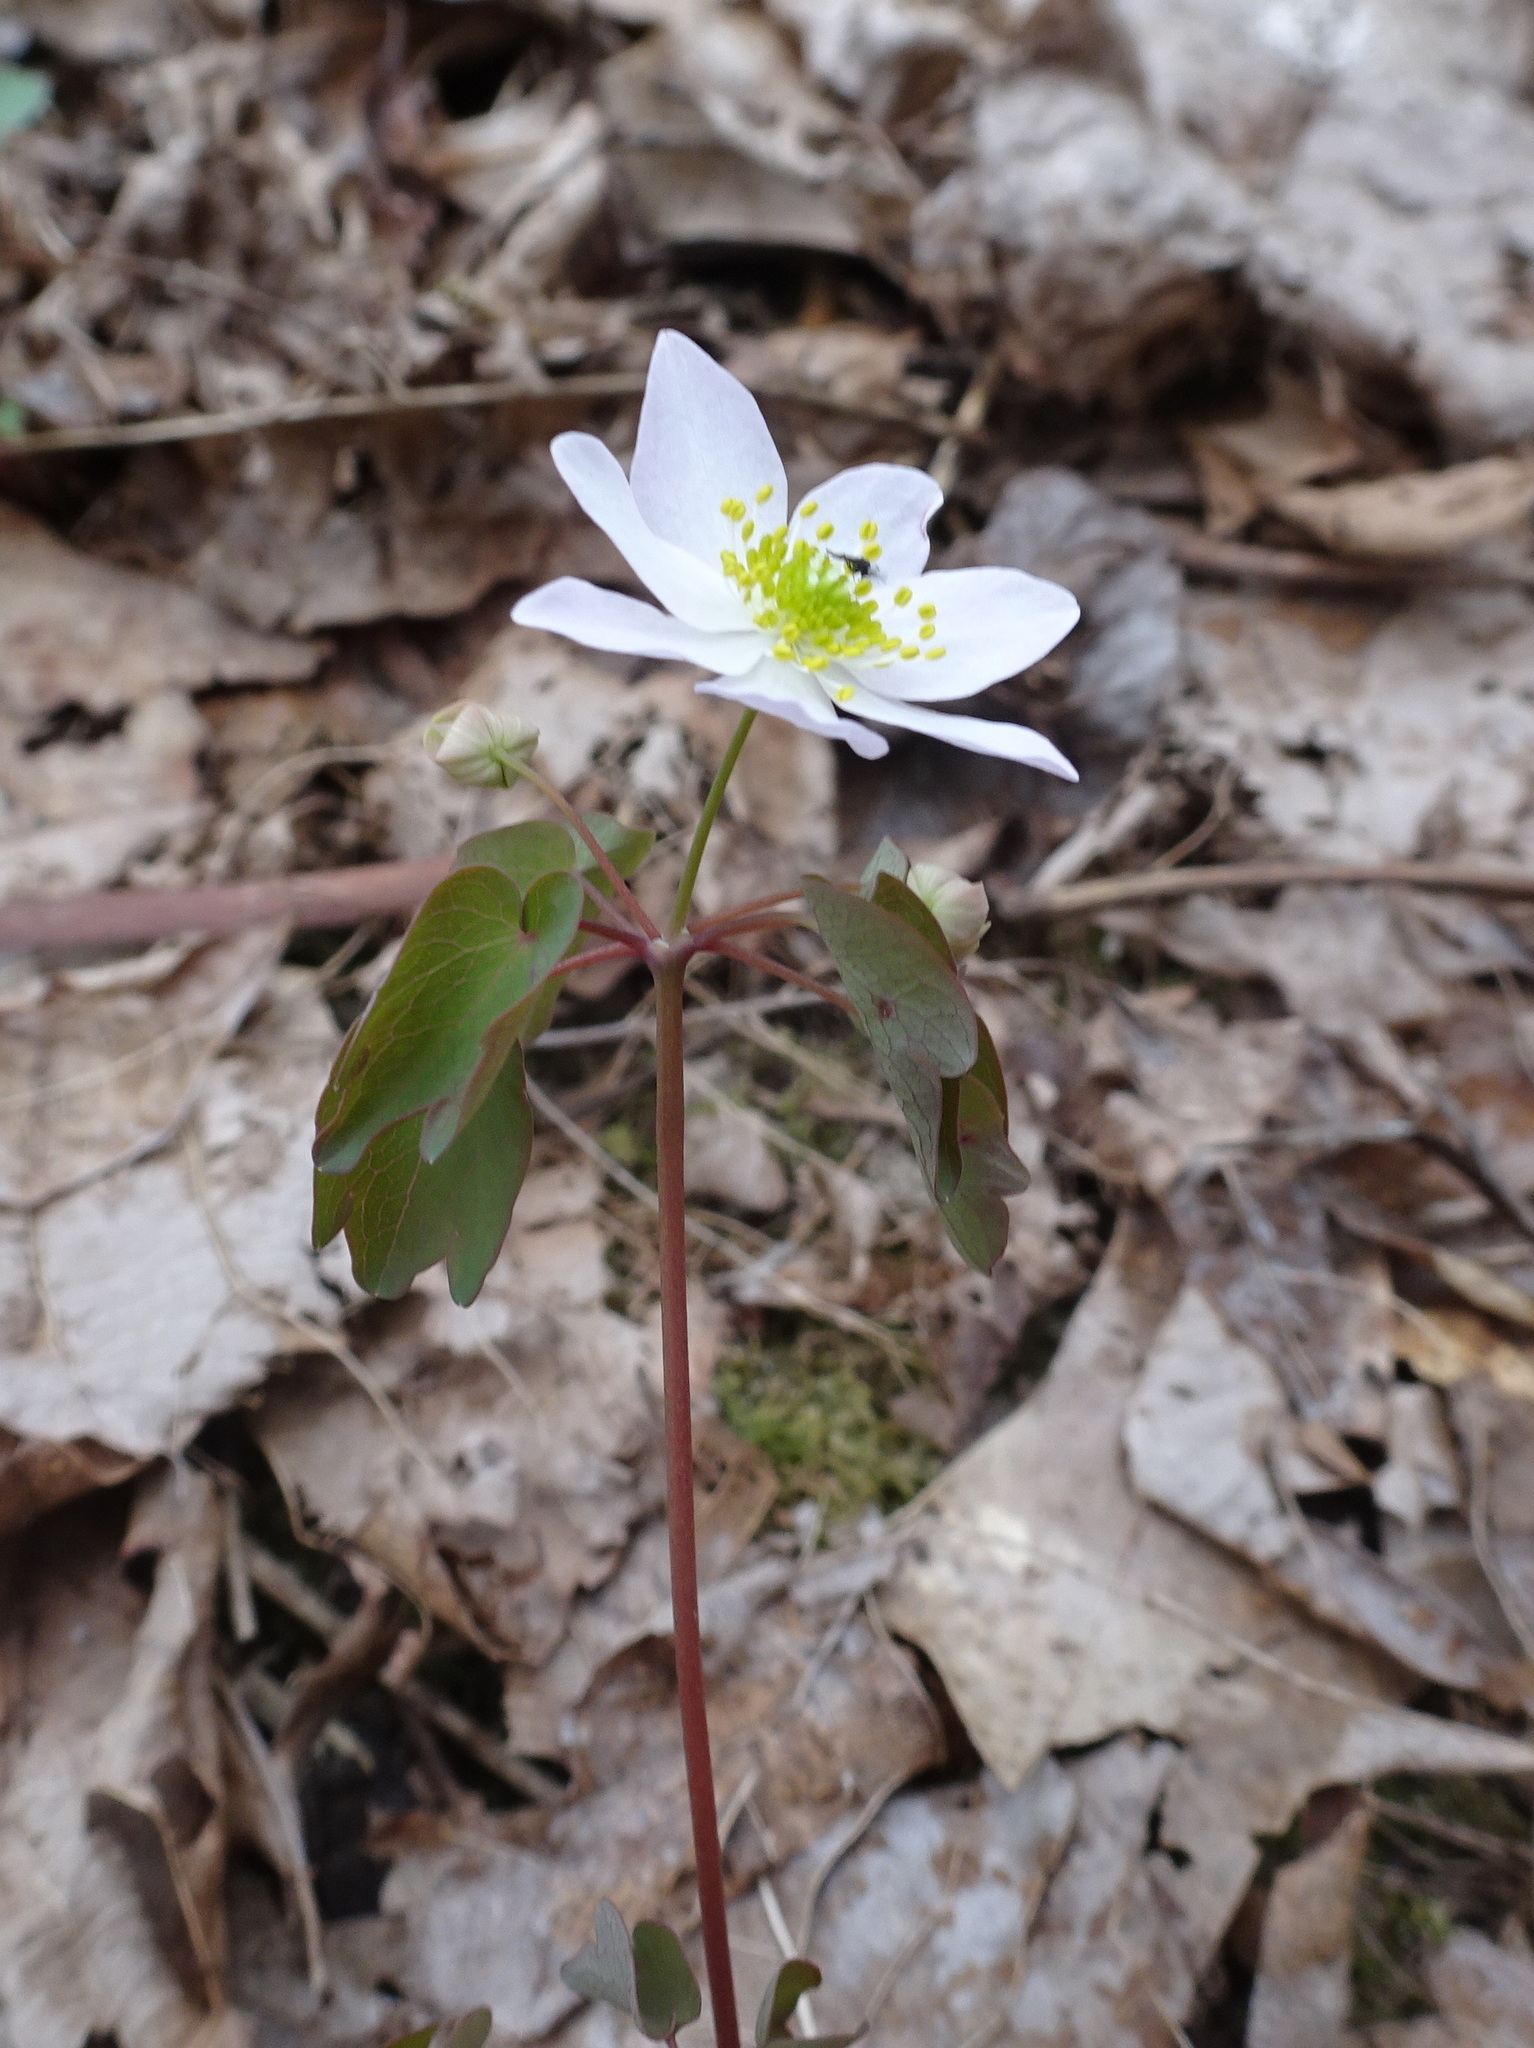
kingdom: Plantae
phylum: Tracheophyta
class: Magnoliopsida
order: Ranunculales
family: Ranunculaceae
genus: Thalictrum
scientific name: Thalictrum thalictroides
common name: Rue-anemone
